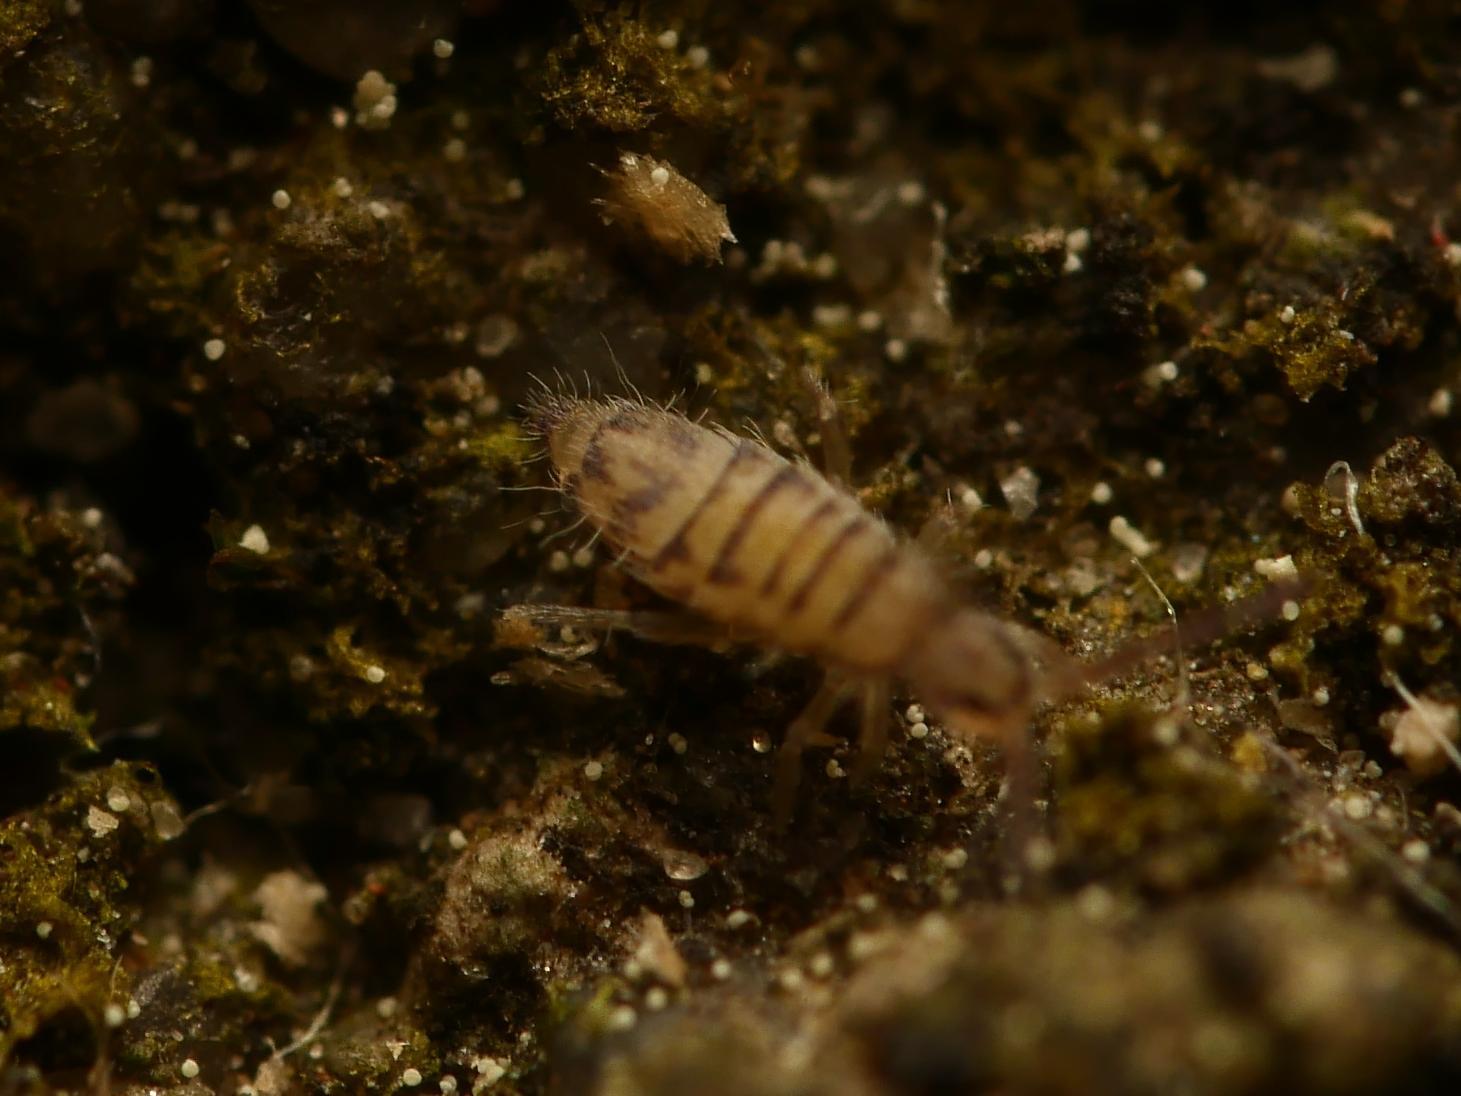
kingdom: Animalia
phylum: Arthropoda
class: Collembola
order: Entomobryomorpha
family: Entomobryidae
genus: Entomobrya
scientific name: Entomobrya multifasciata
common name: Springtail
